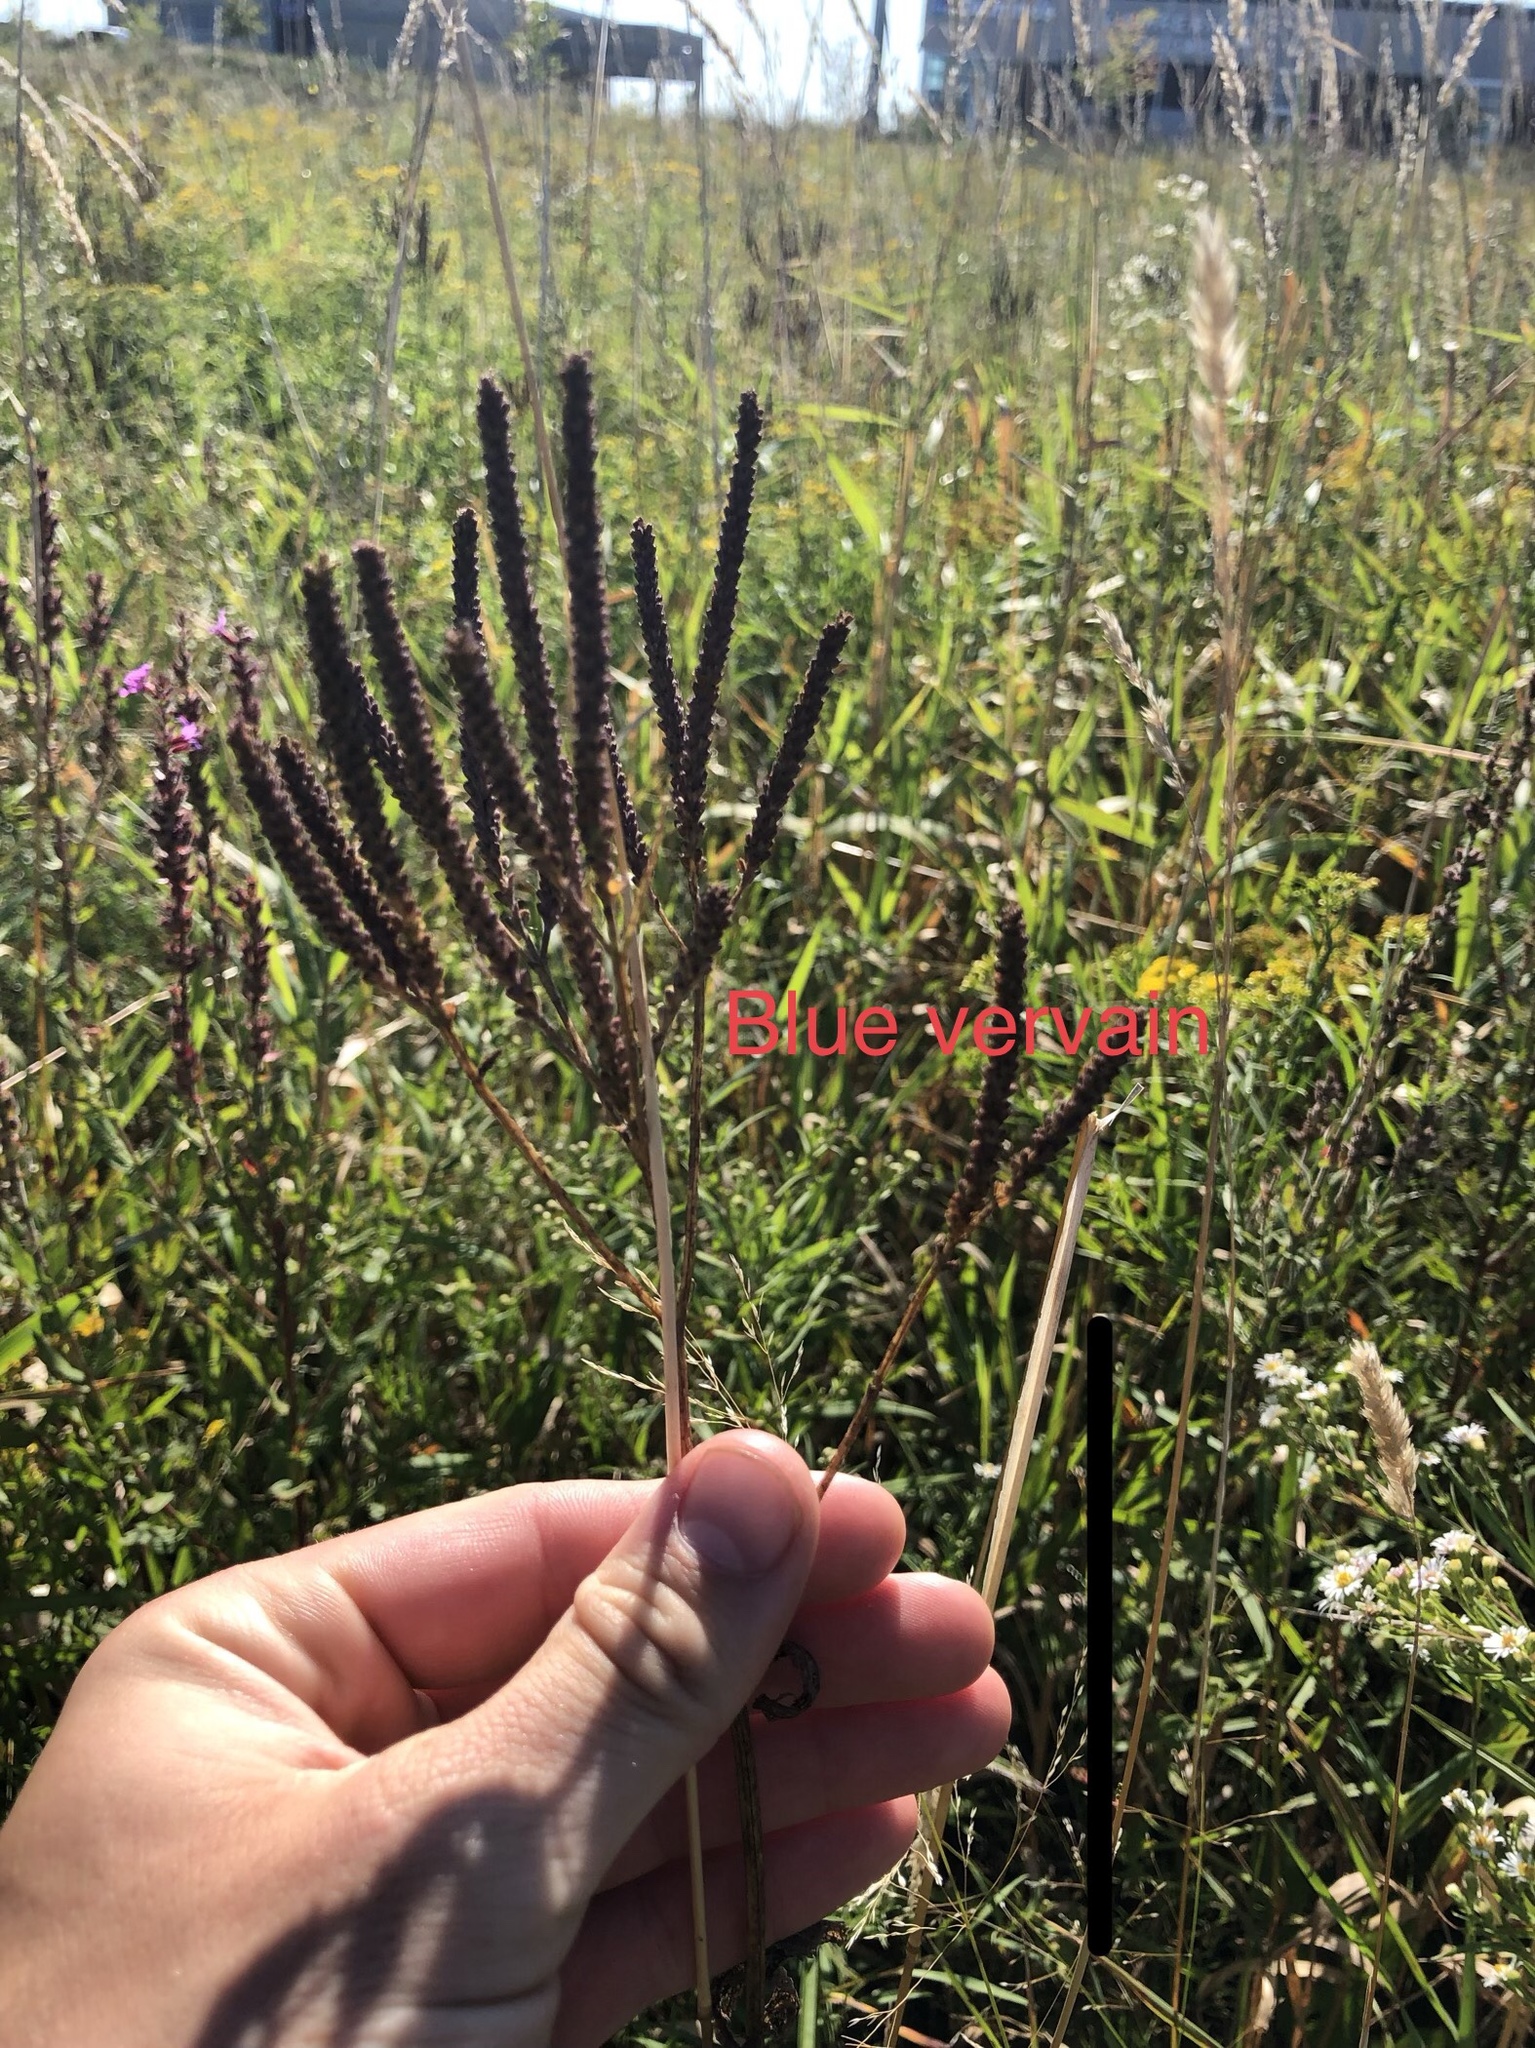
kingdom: Plantae
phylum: Tracheophyta
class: Magnoliopsida
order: Lamiales
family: Verbenaceae
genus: Verbena
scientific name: Verbena hastata
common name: American blue vervain
